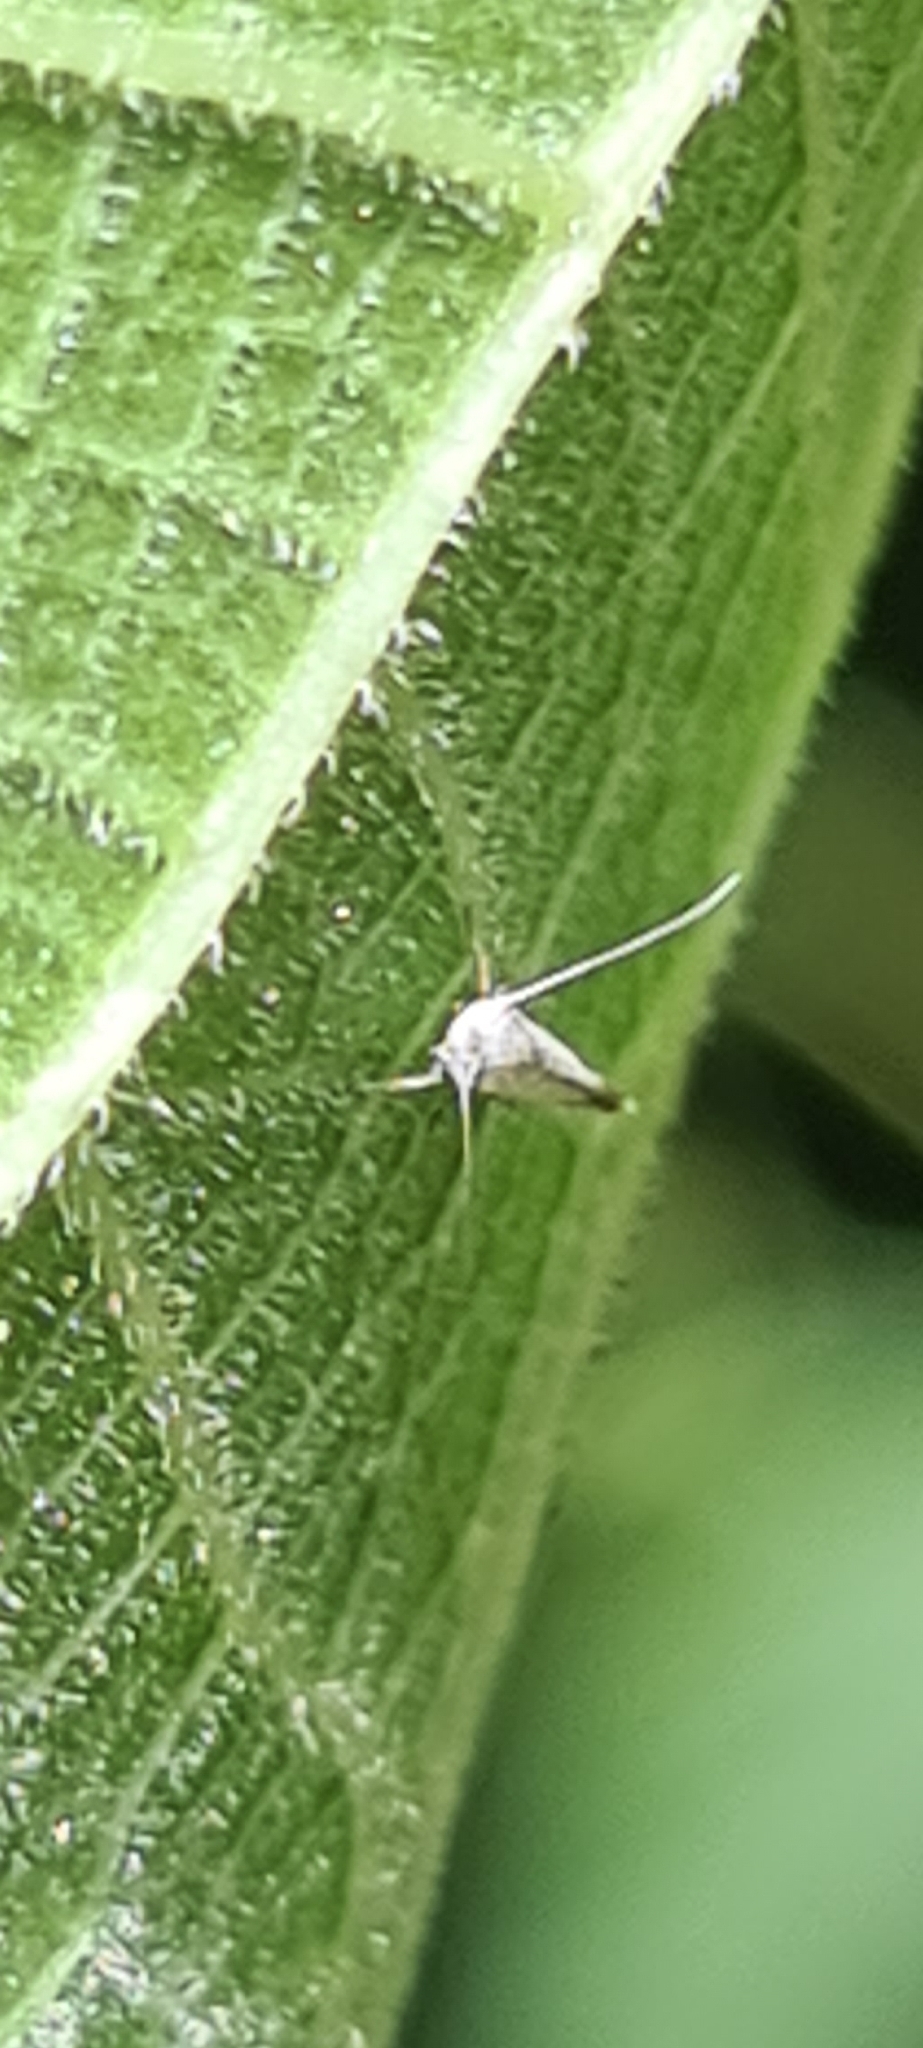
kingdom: Animalia
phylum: Arthropoda
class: Insecta
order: Lepidoptera
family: Lyonetiidae
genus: Lyonetia
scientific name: Lyonetia clerkella
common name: Apple leaf miner
